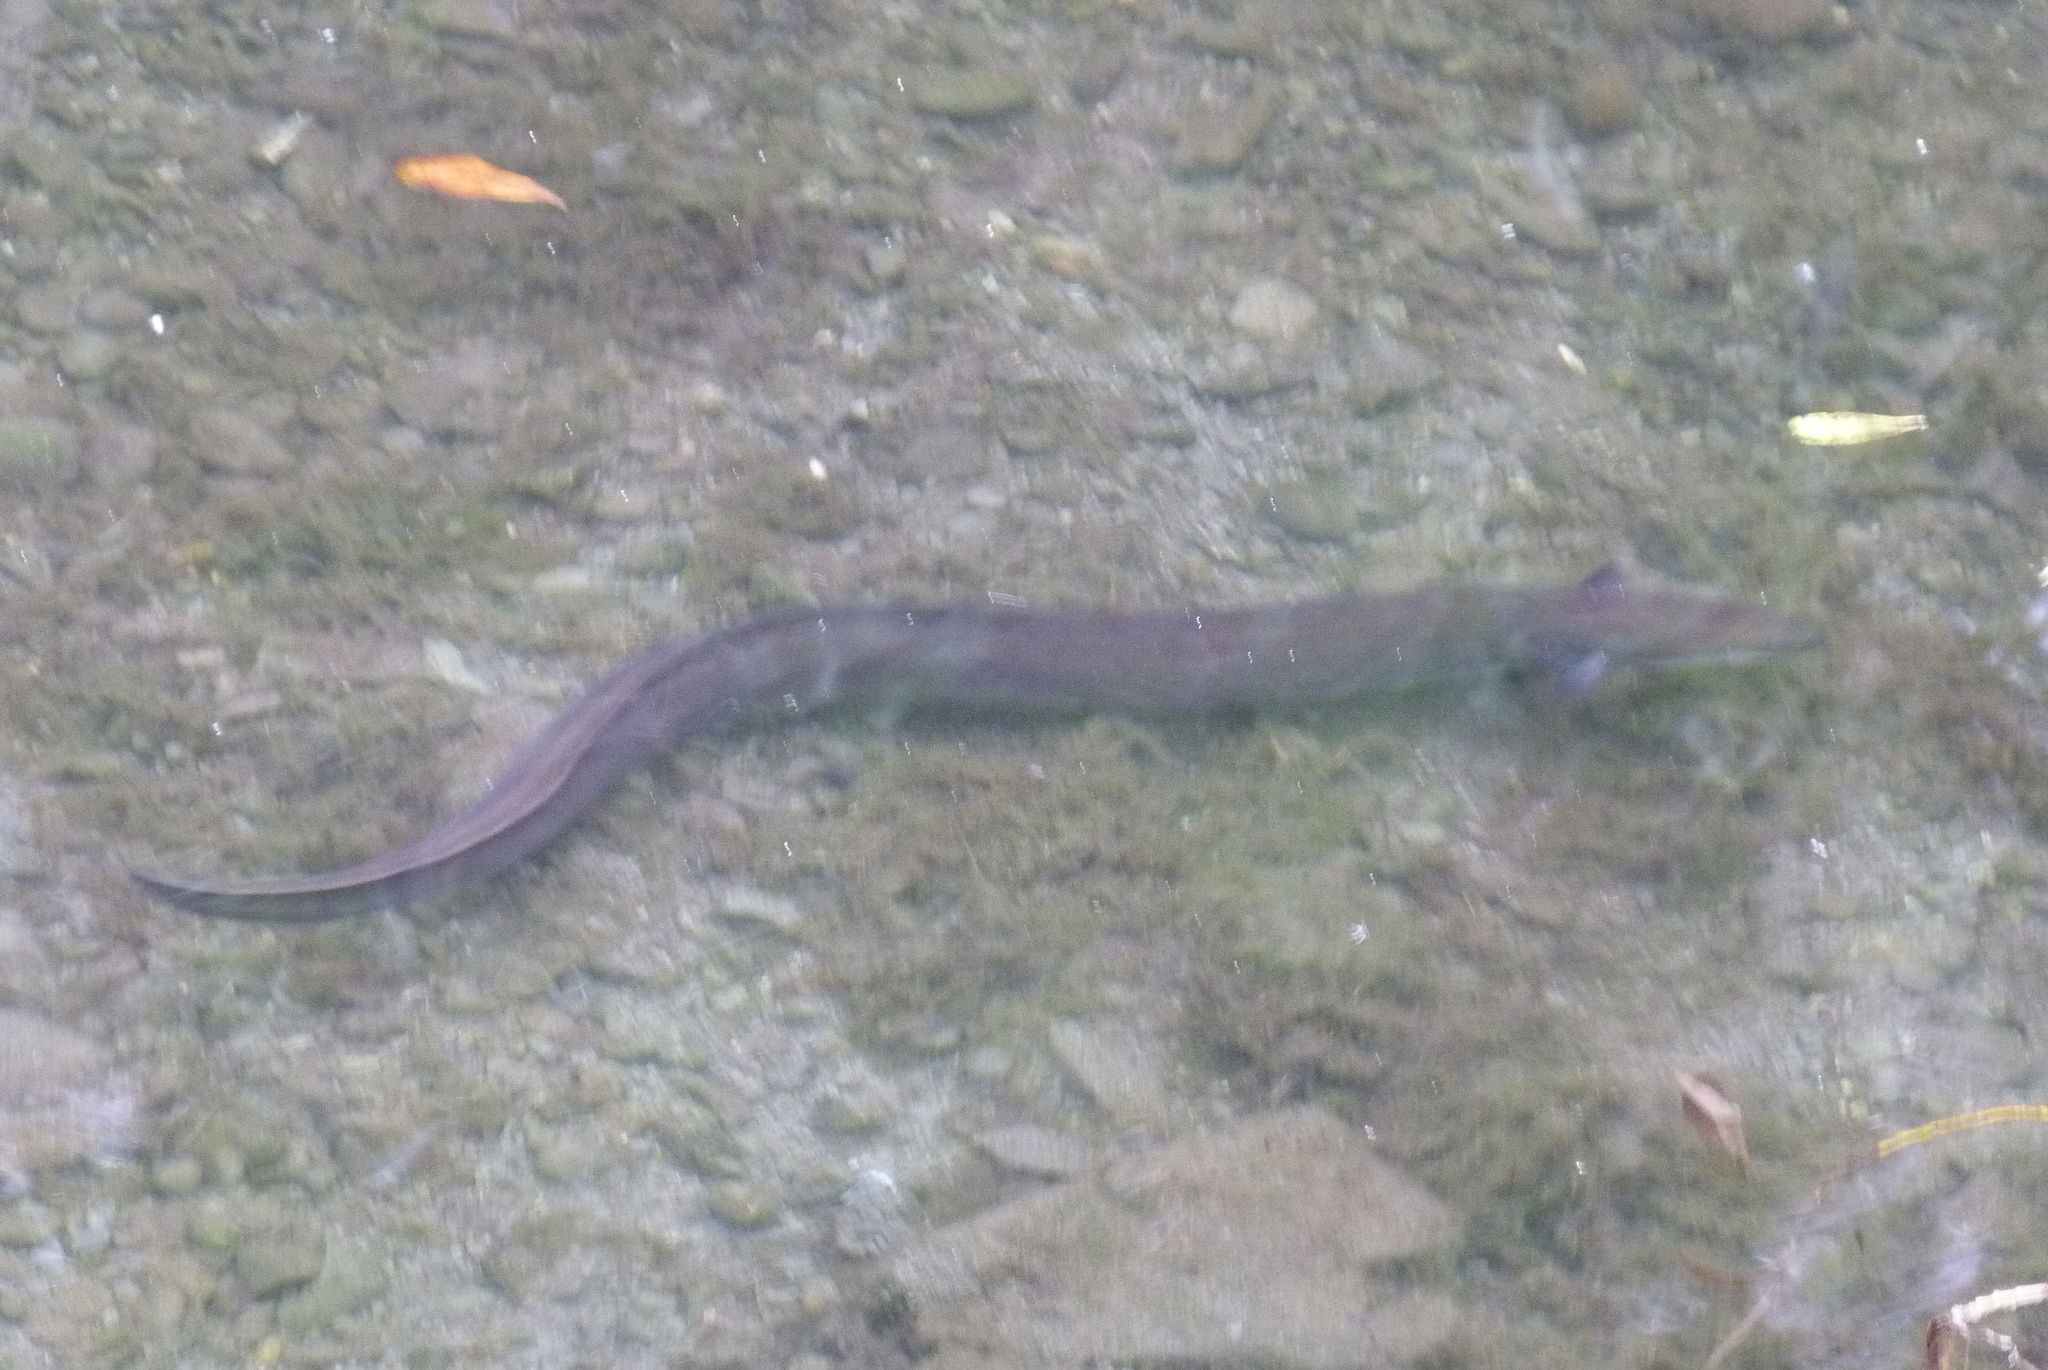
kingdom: Animalia
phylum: Chordata
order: Anguilliformes
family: Anguillidae
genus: Anguilla
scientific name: Anguilla australis
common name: Shortfin eel
